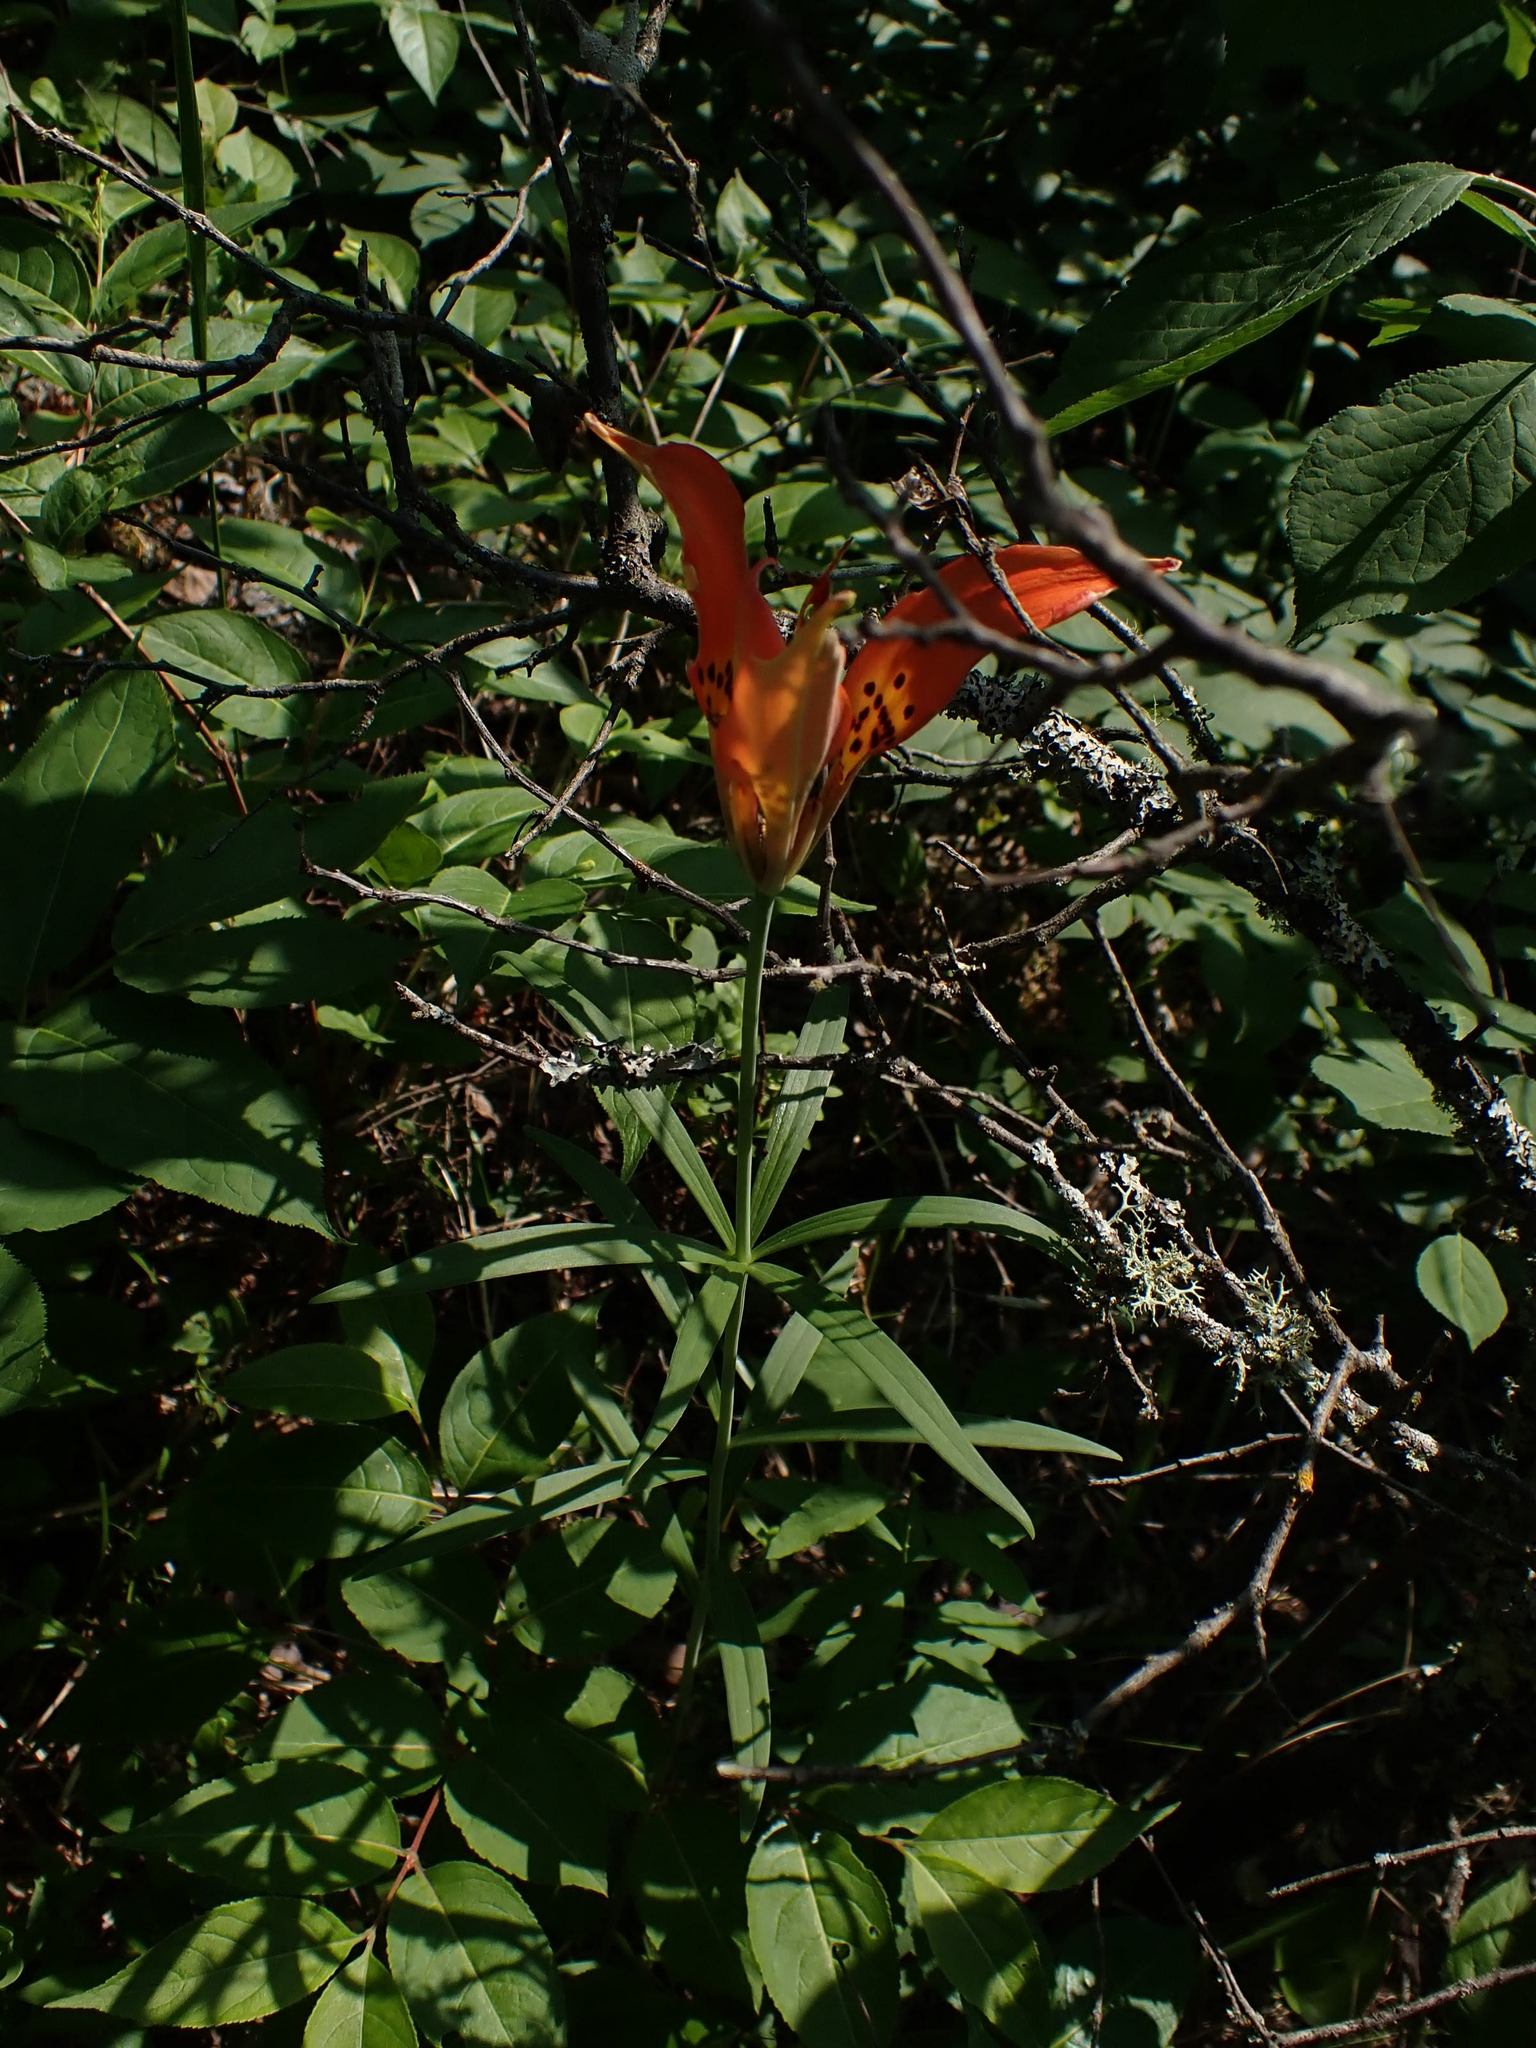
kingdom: Plantae
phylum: Tracheophyta
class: Liliopsida
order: Liliales
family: Liliaceae
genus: Lilium
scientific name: Lilium philadelphicum
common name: Red lily
